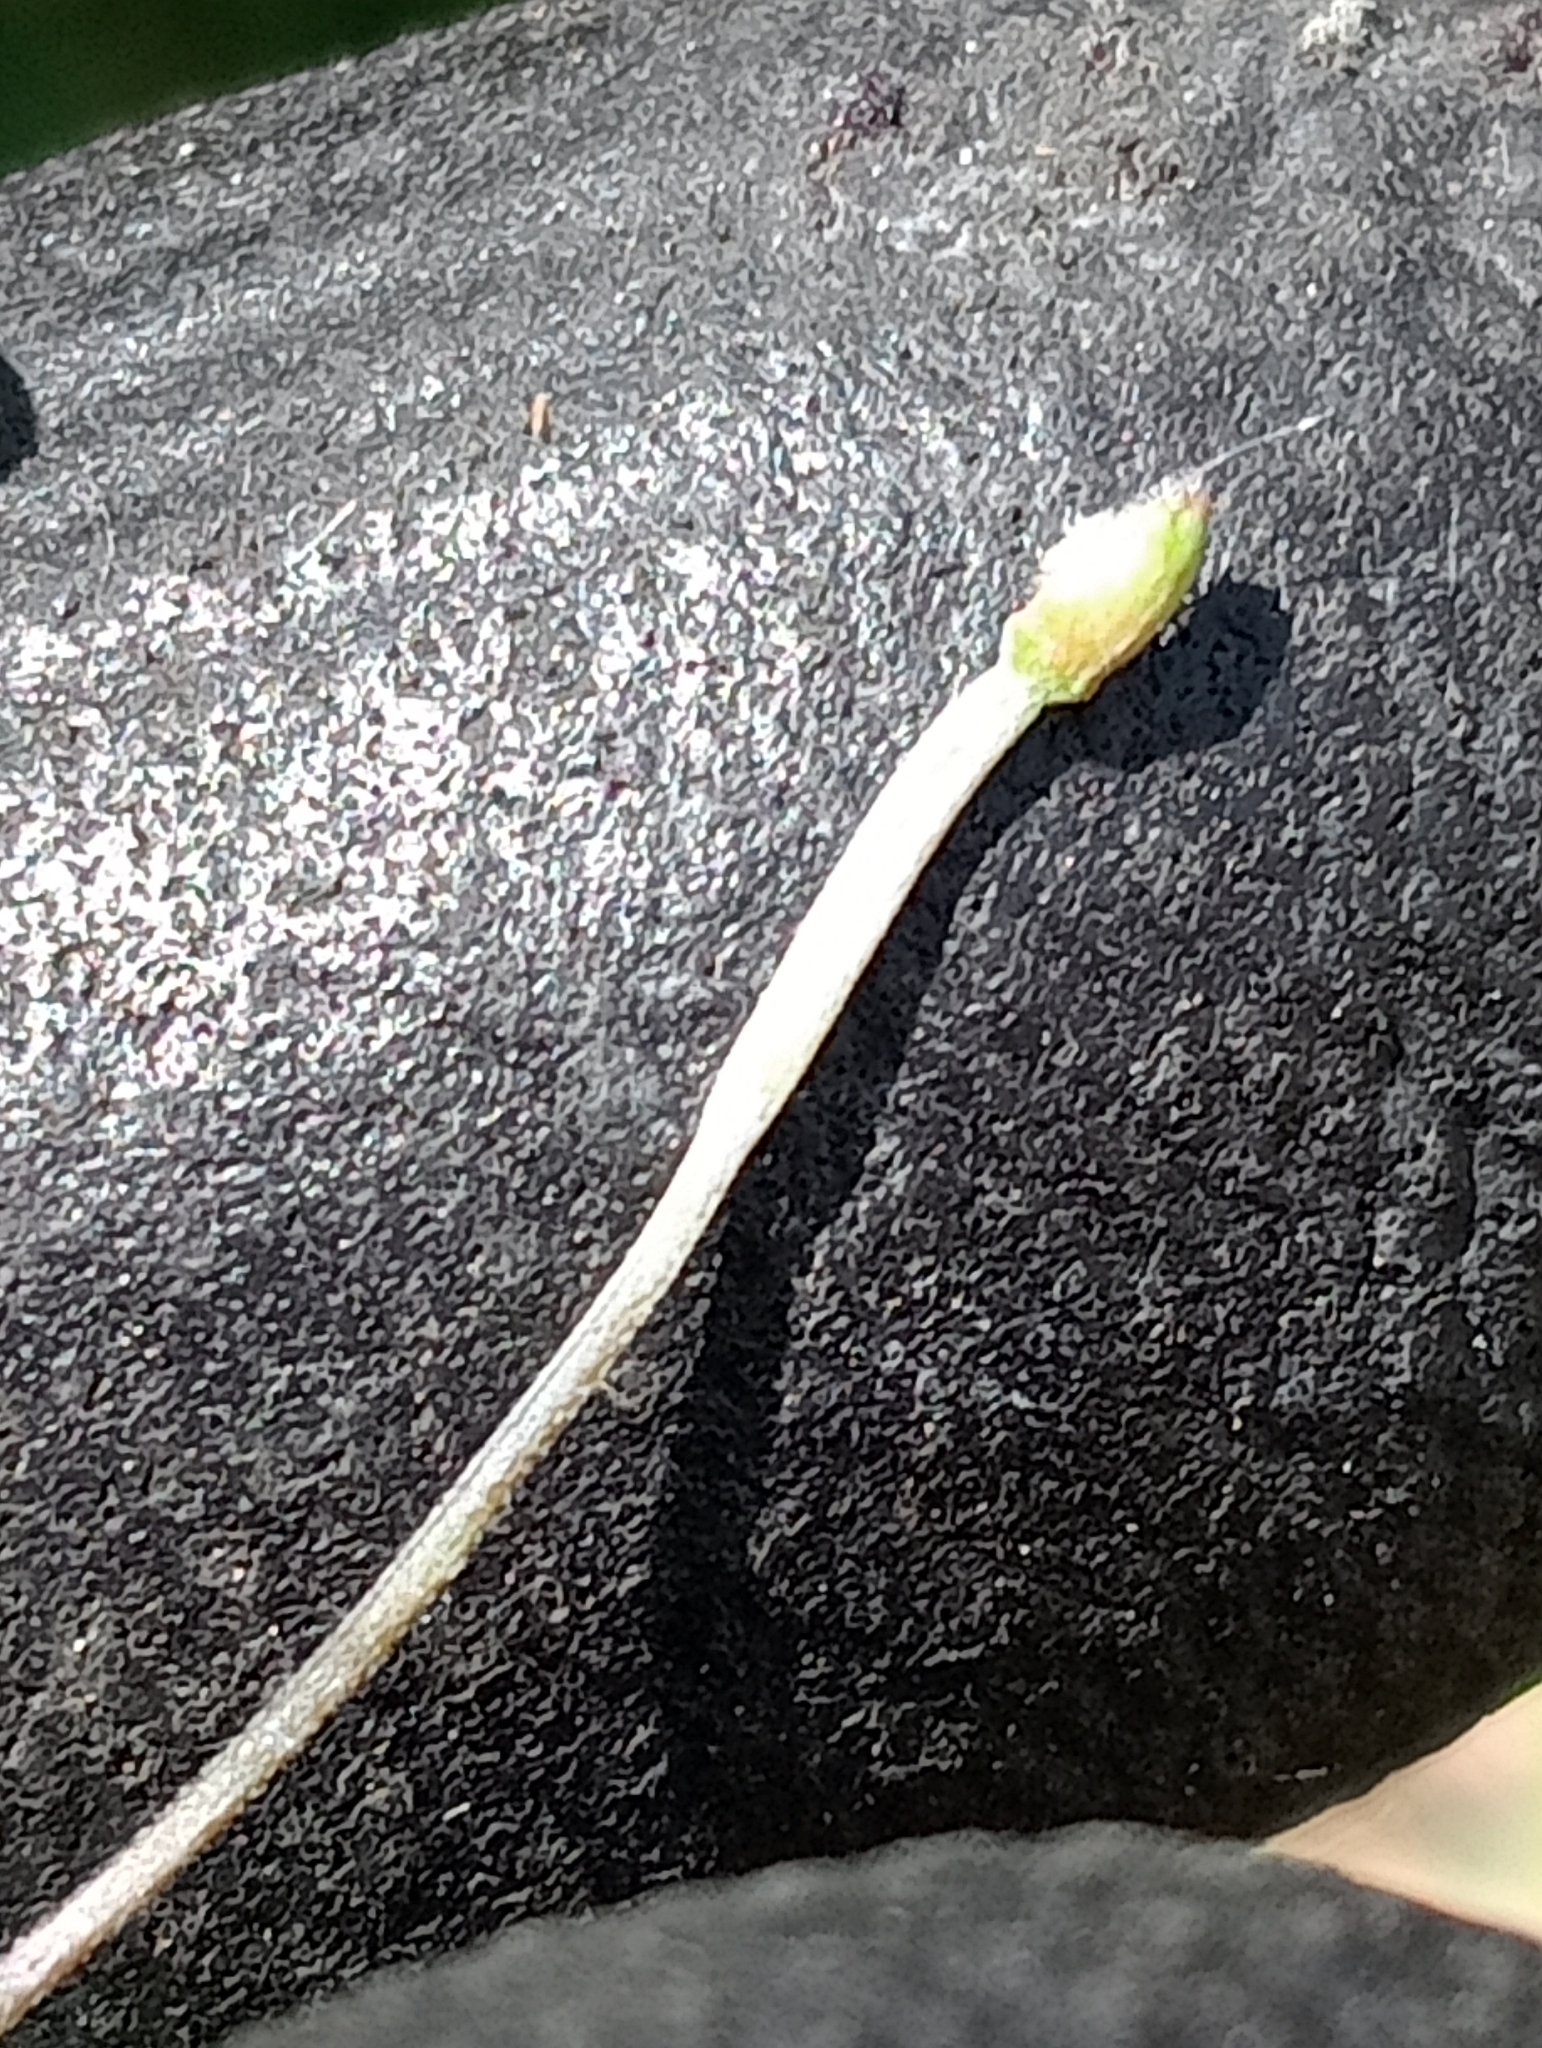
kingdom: Plantae
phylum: Tracheophyta
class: Magnoliopsida
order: Myrtales
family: Onagraceae
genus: Epilobium
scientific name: Epilobium nummularifolium
